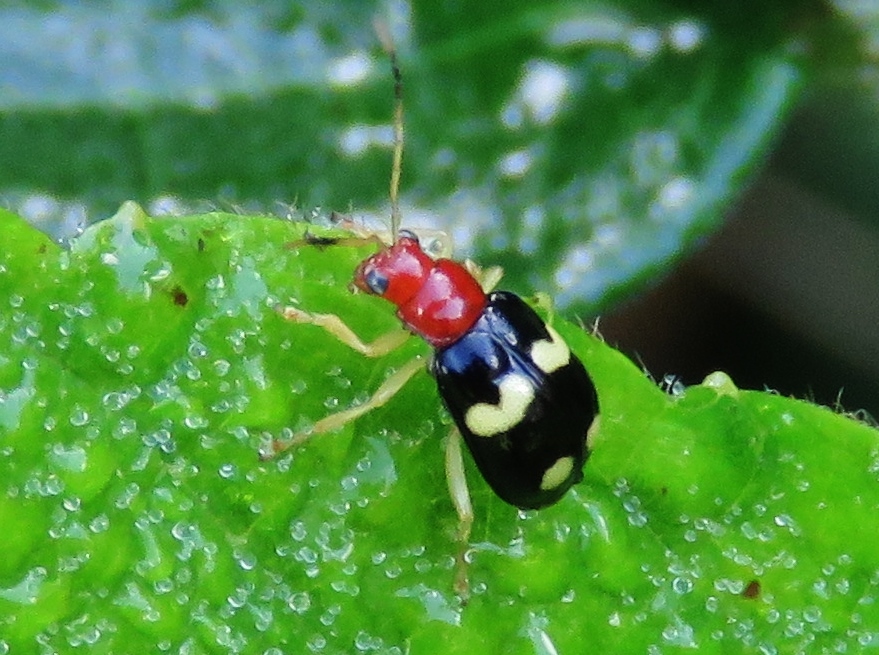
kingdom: Animalia
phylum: Arthropoda
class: Insecta
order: Coleoptera
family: Chrysomelidae
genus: Gynandrobrotica
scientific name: Gynandrobrotica
